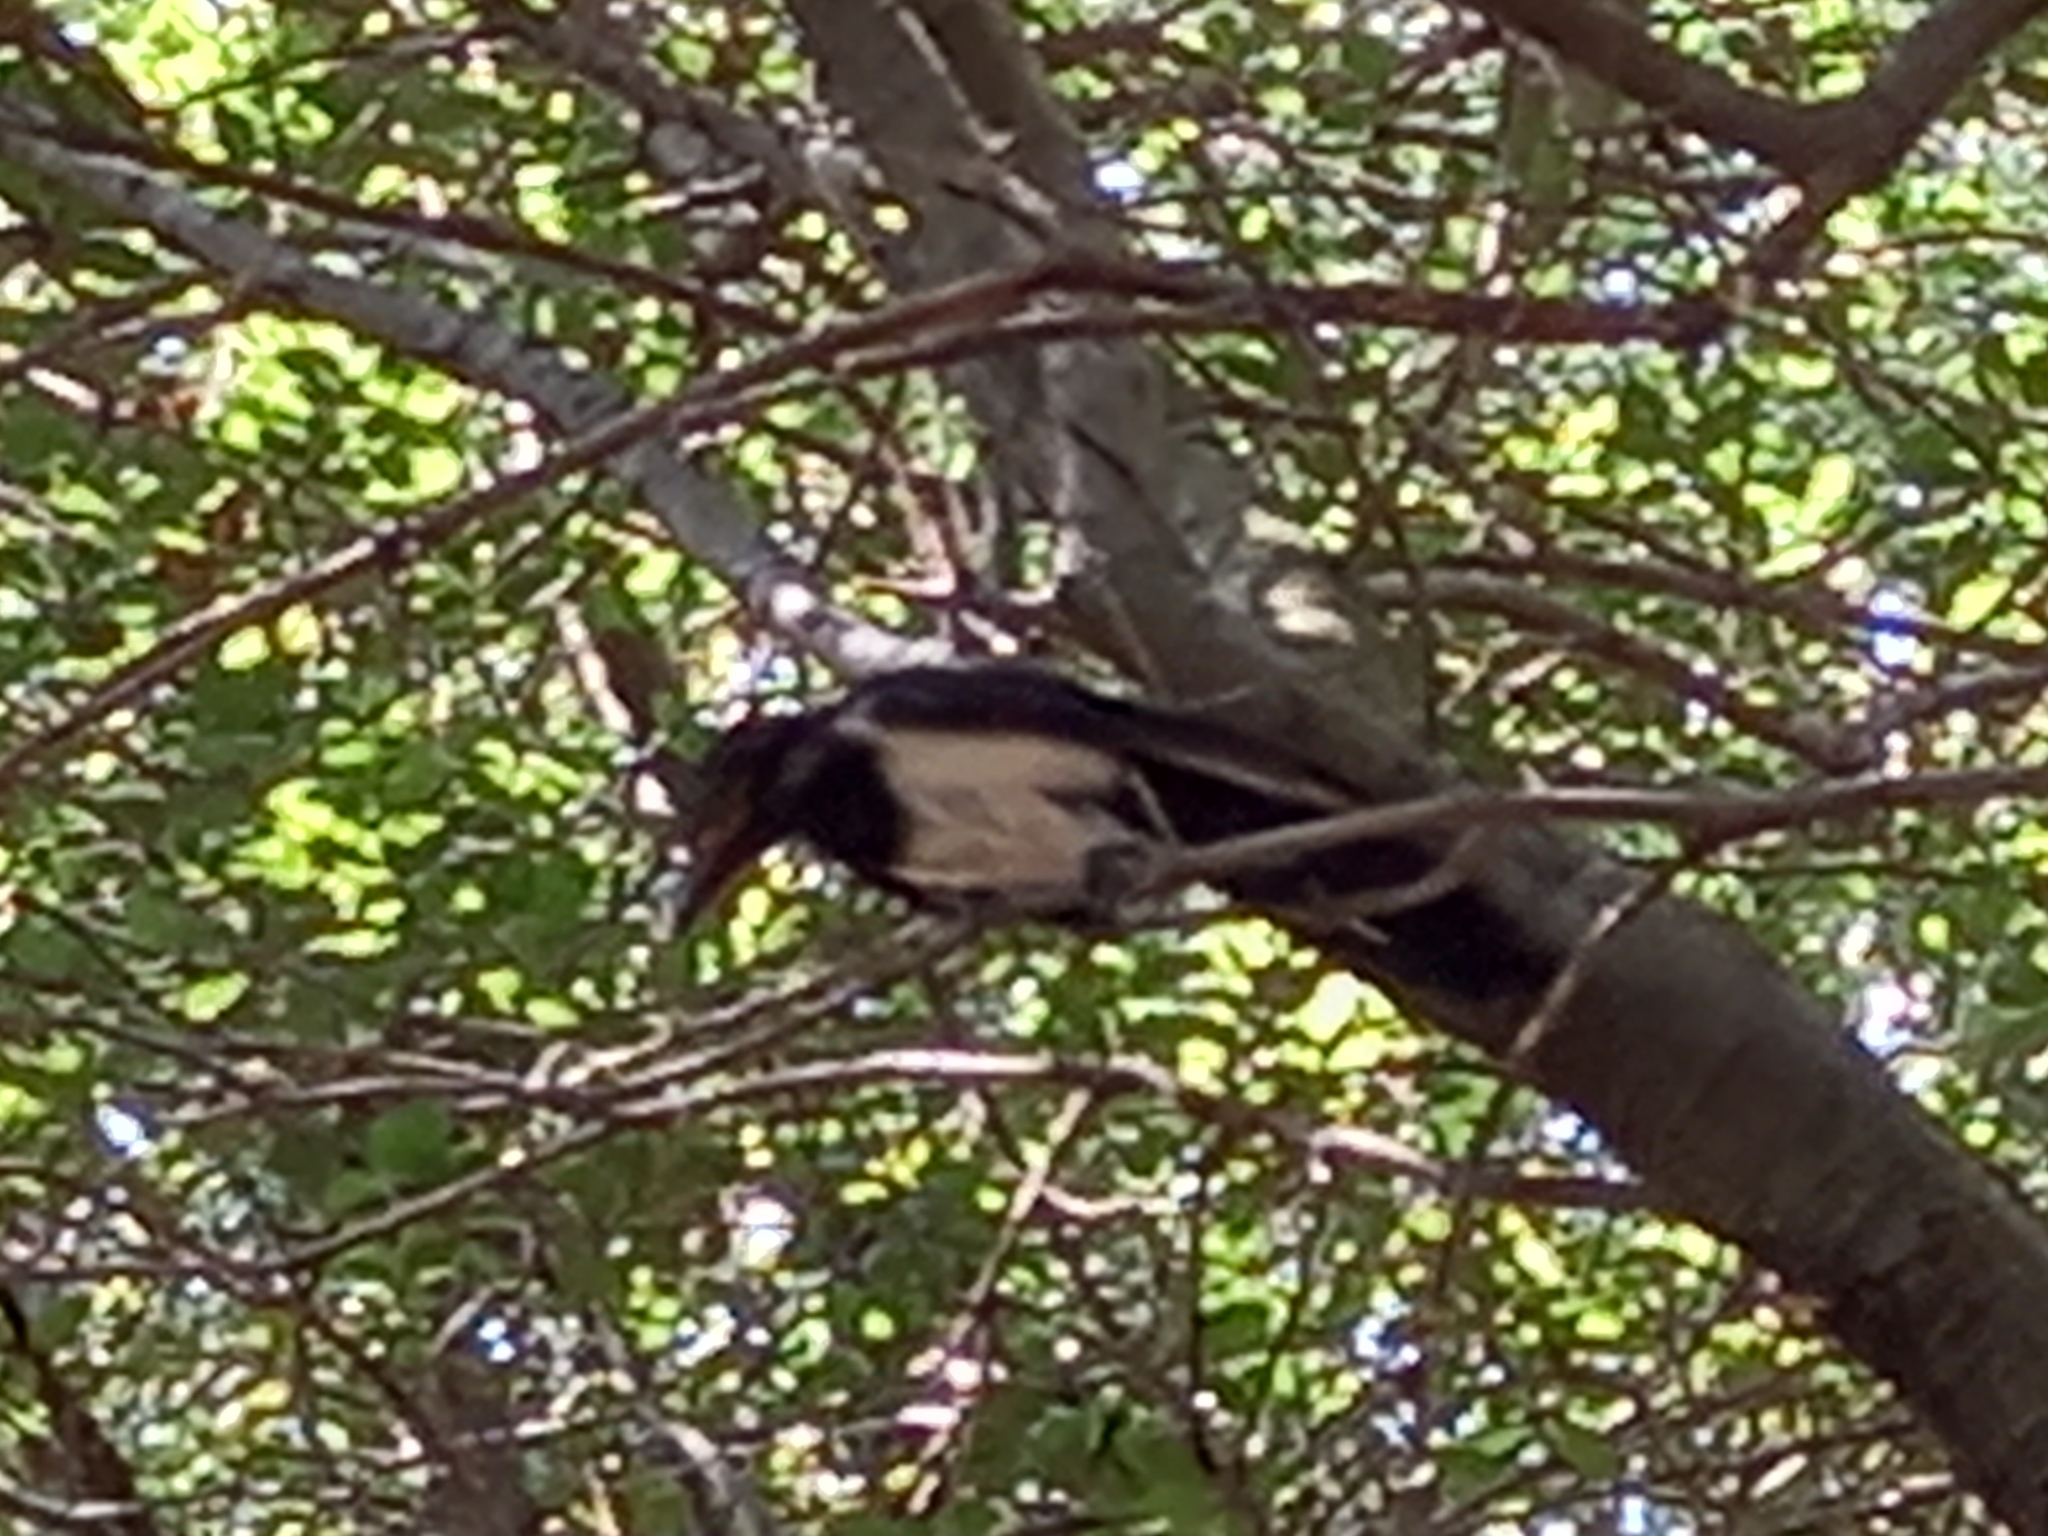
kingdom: Animalia
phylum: Chordata
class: Aves
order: Passeriformes
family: Corvidae
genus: Pica
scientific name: Pica pica
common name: Eurasian magpie
